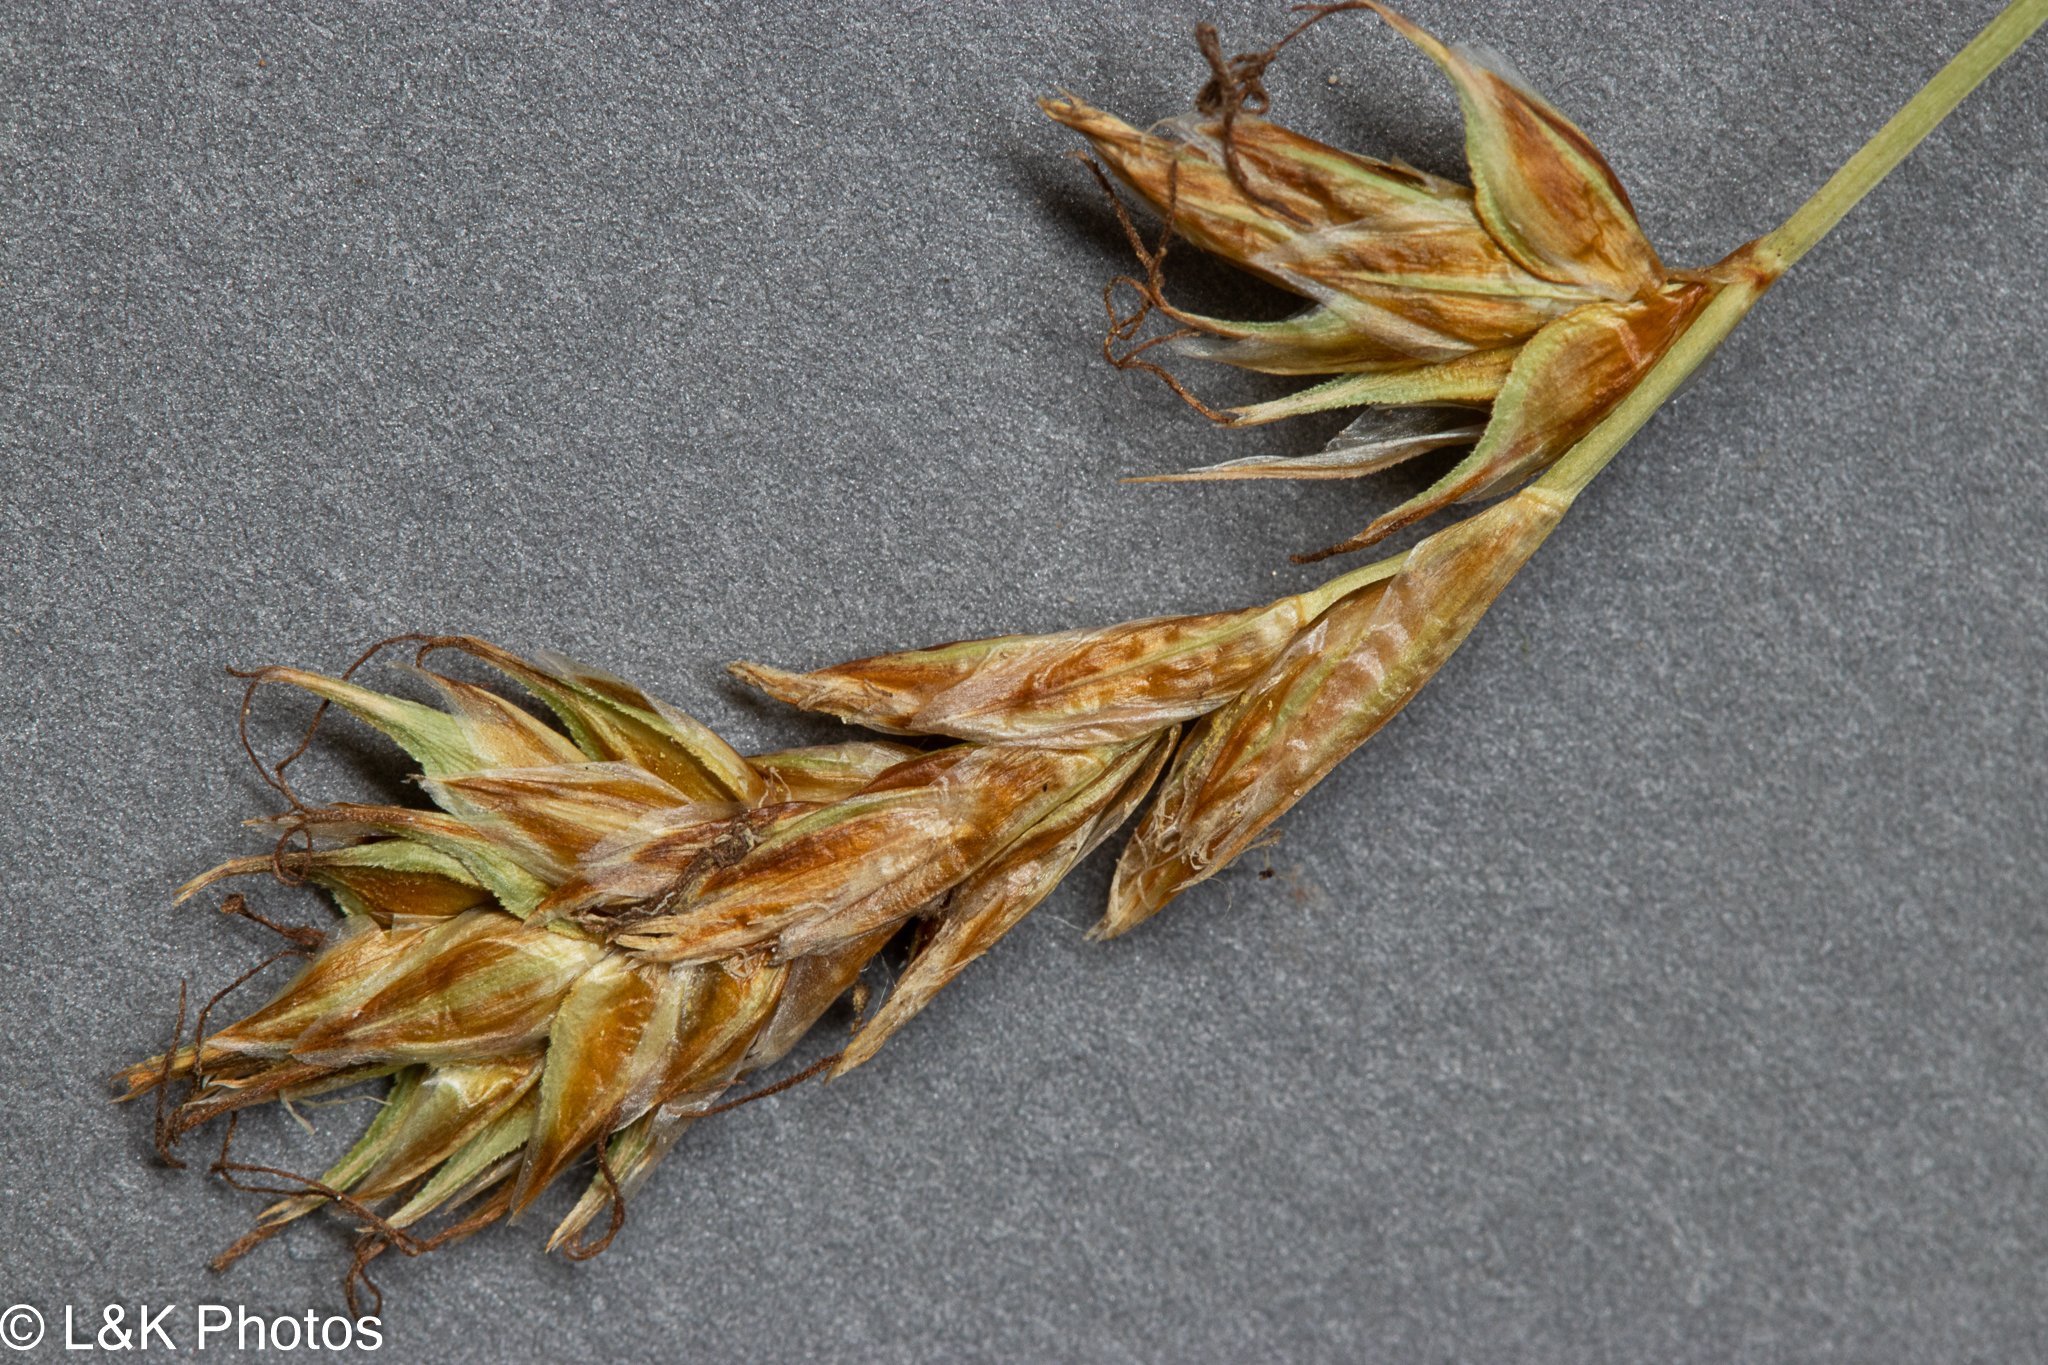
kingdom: Plantae
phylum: Tracheophyta
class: Liliopsida
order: Poales
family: Cyperaceae
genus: Carex
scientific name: Carex siccata
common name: Dry sedge
